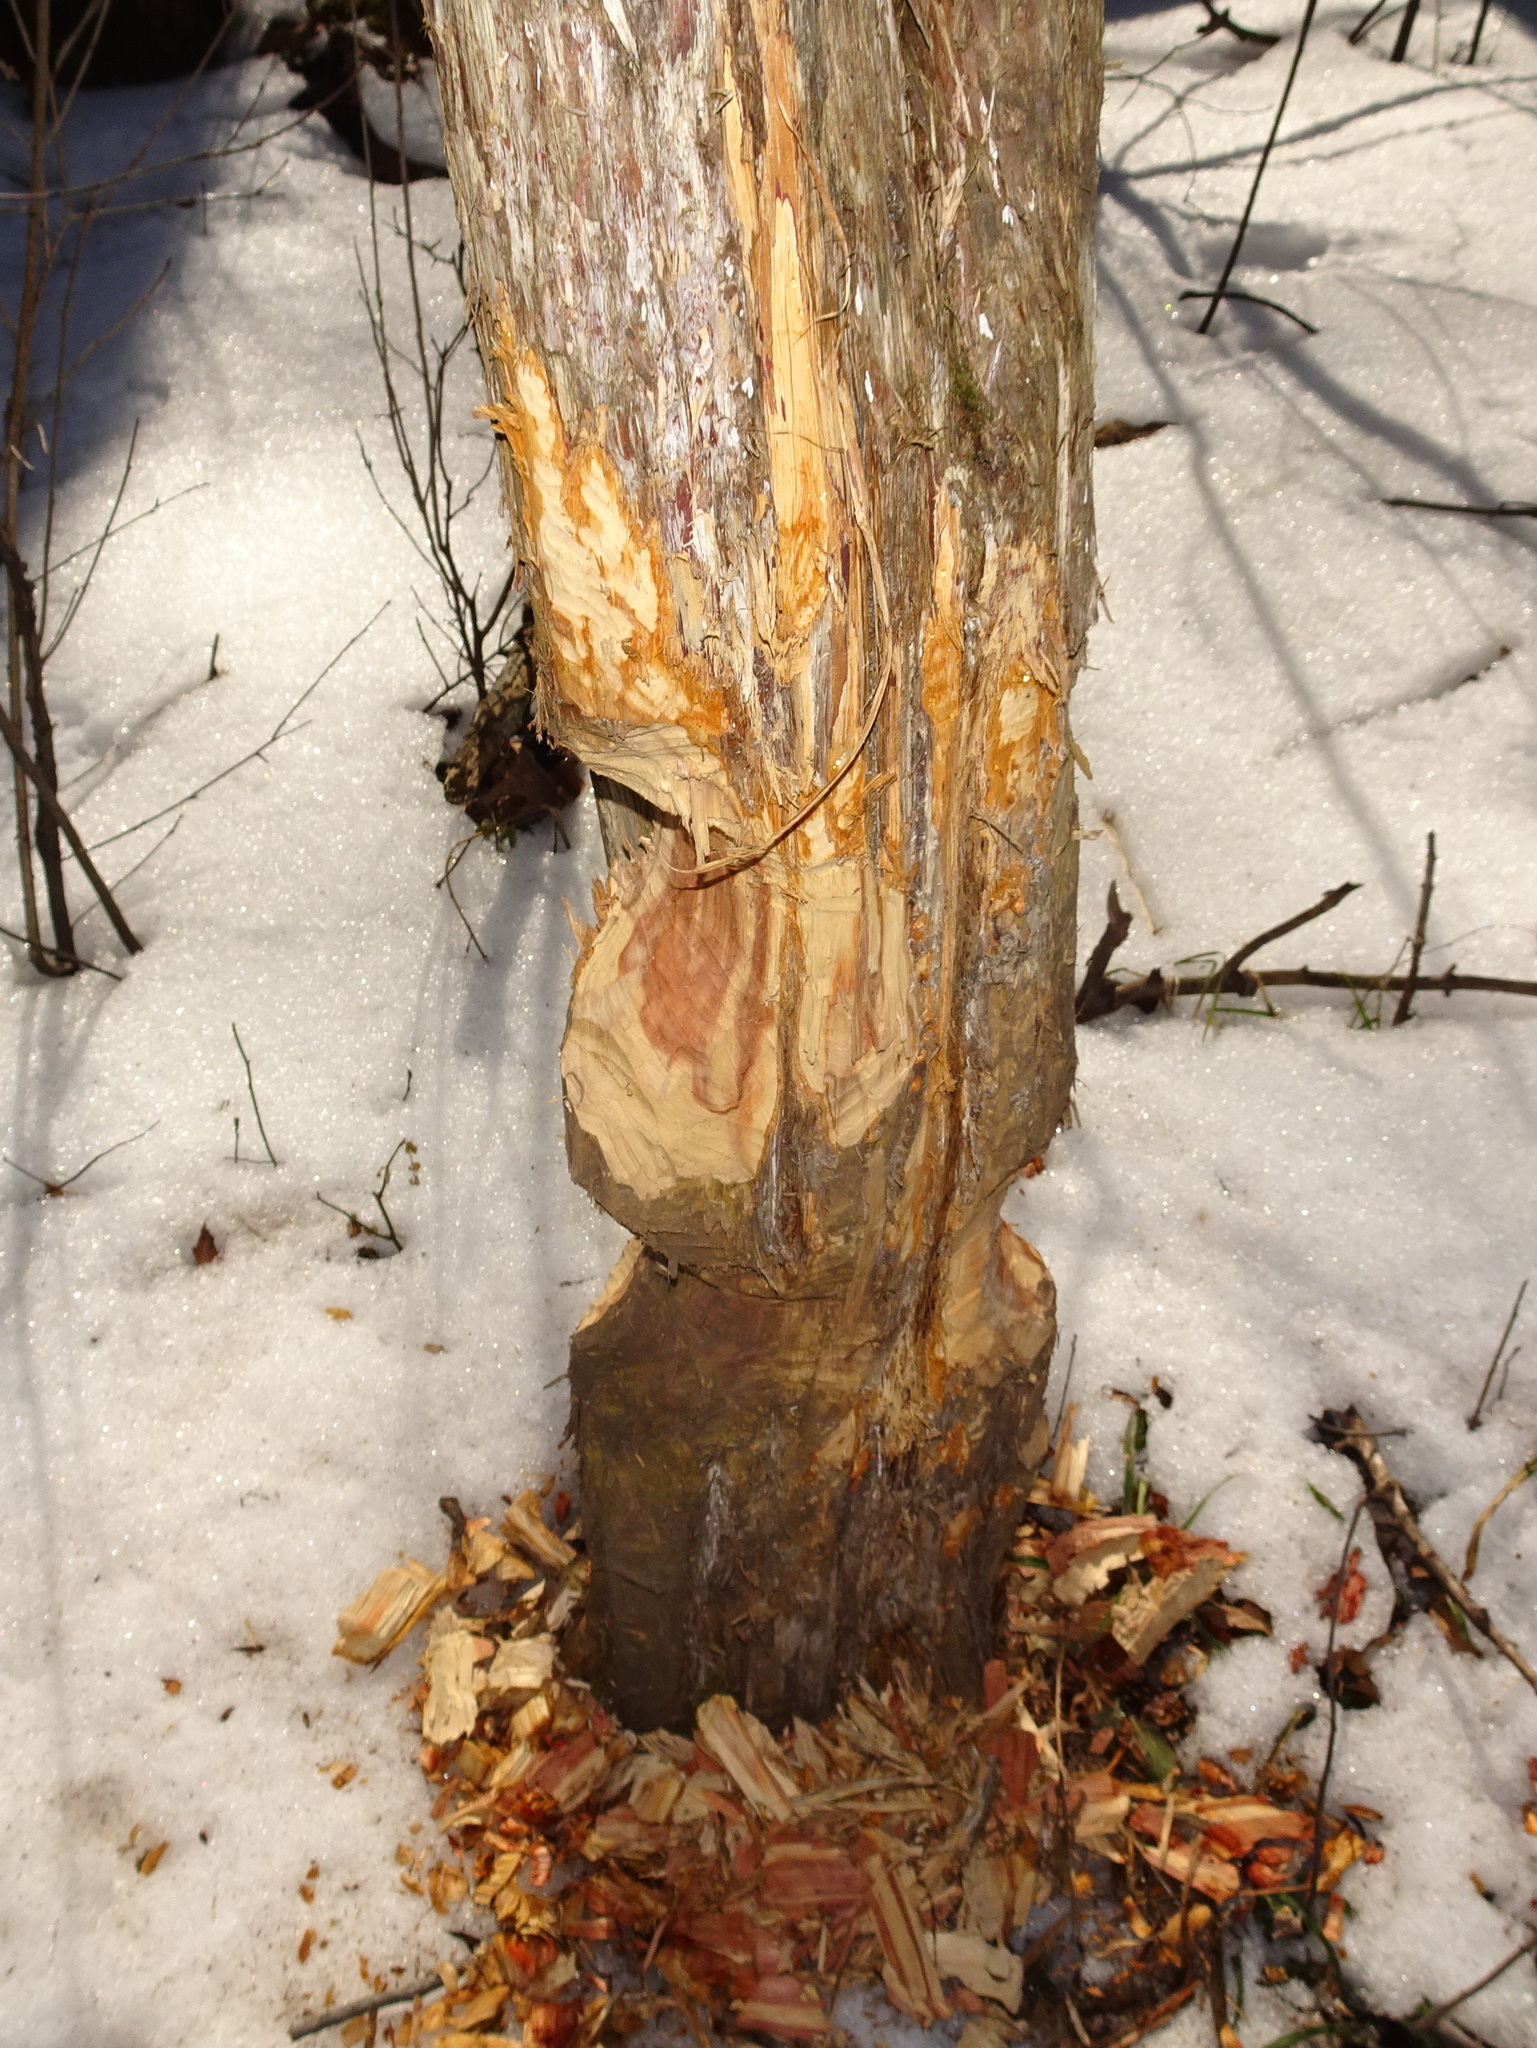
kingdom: Animalia
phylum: Chordata
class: Mammalia
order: Rodentia
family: Castoridae
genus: Castor
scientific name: Castor canadensis
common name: American beaver
